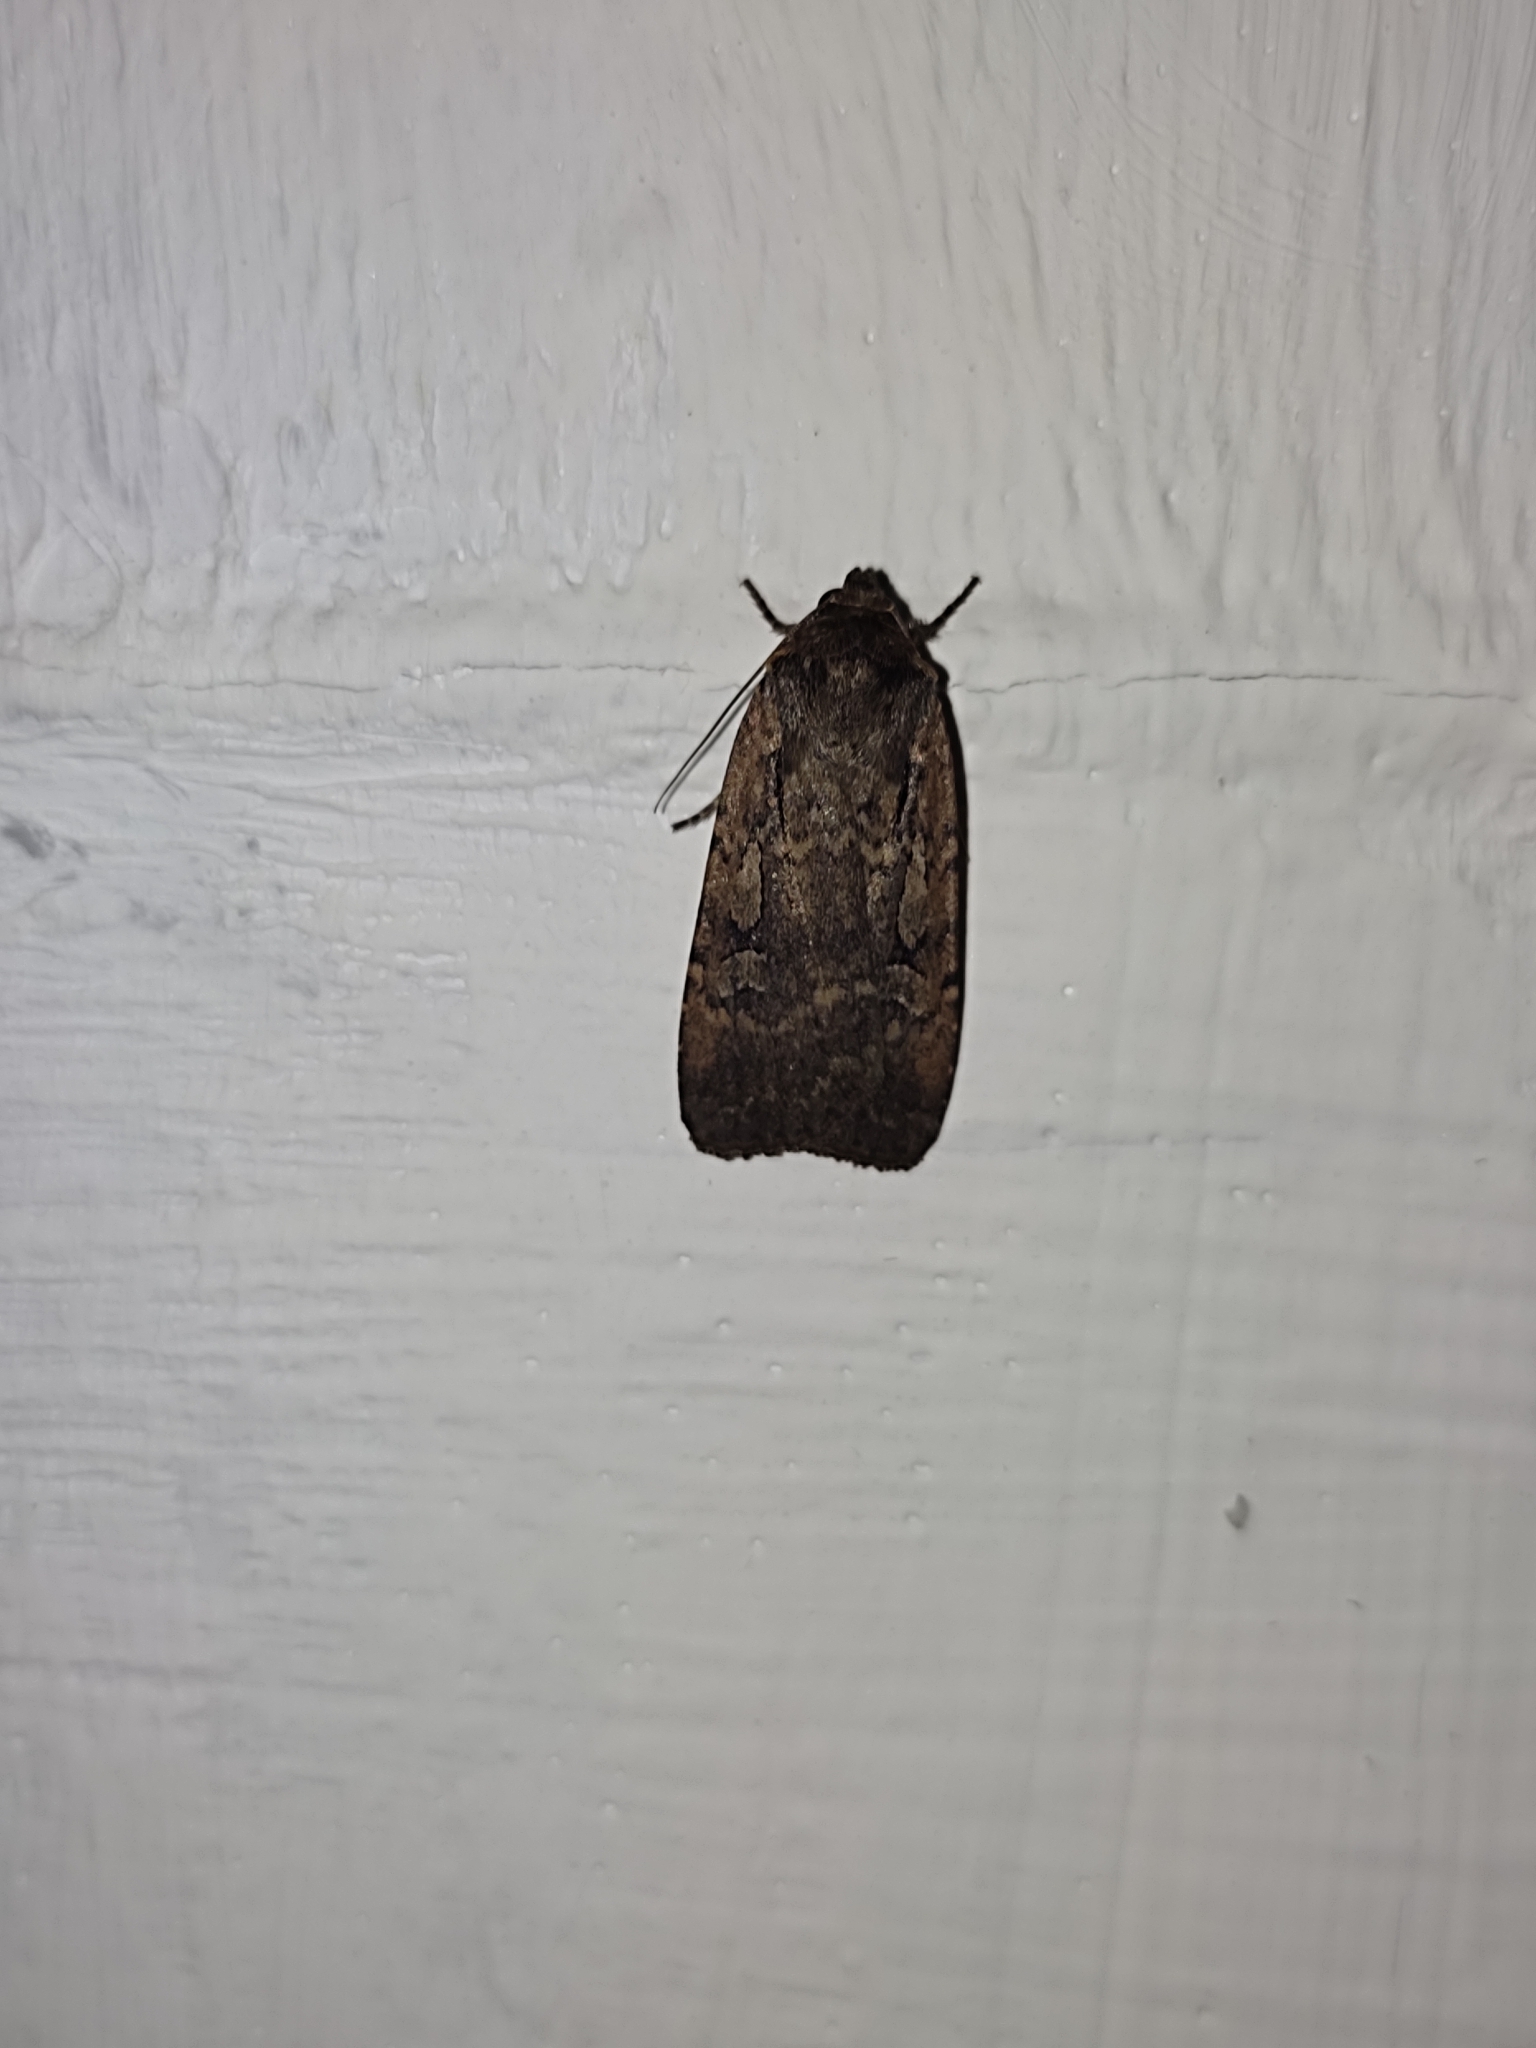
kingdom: Animalia
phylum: Arthropoda
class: Insecta
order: Lepidoptera
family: Noctuidae
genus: Spaelotis
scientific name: Spaelotis ravida
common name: Stout dart
